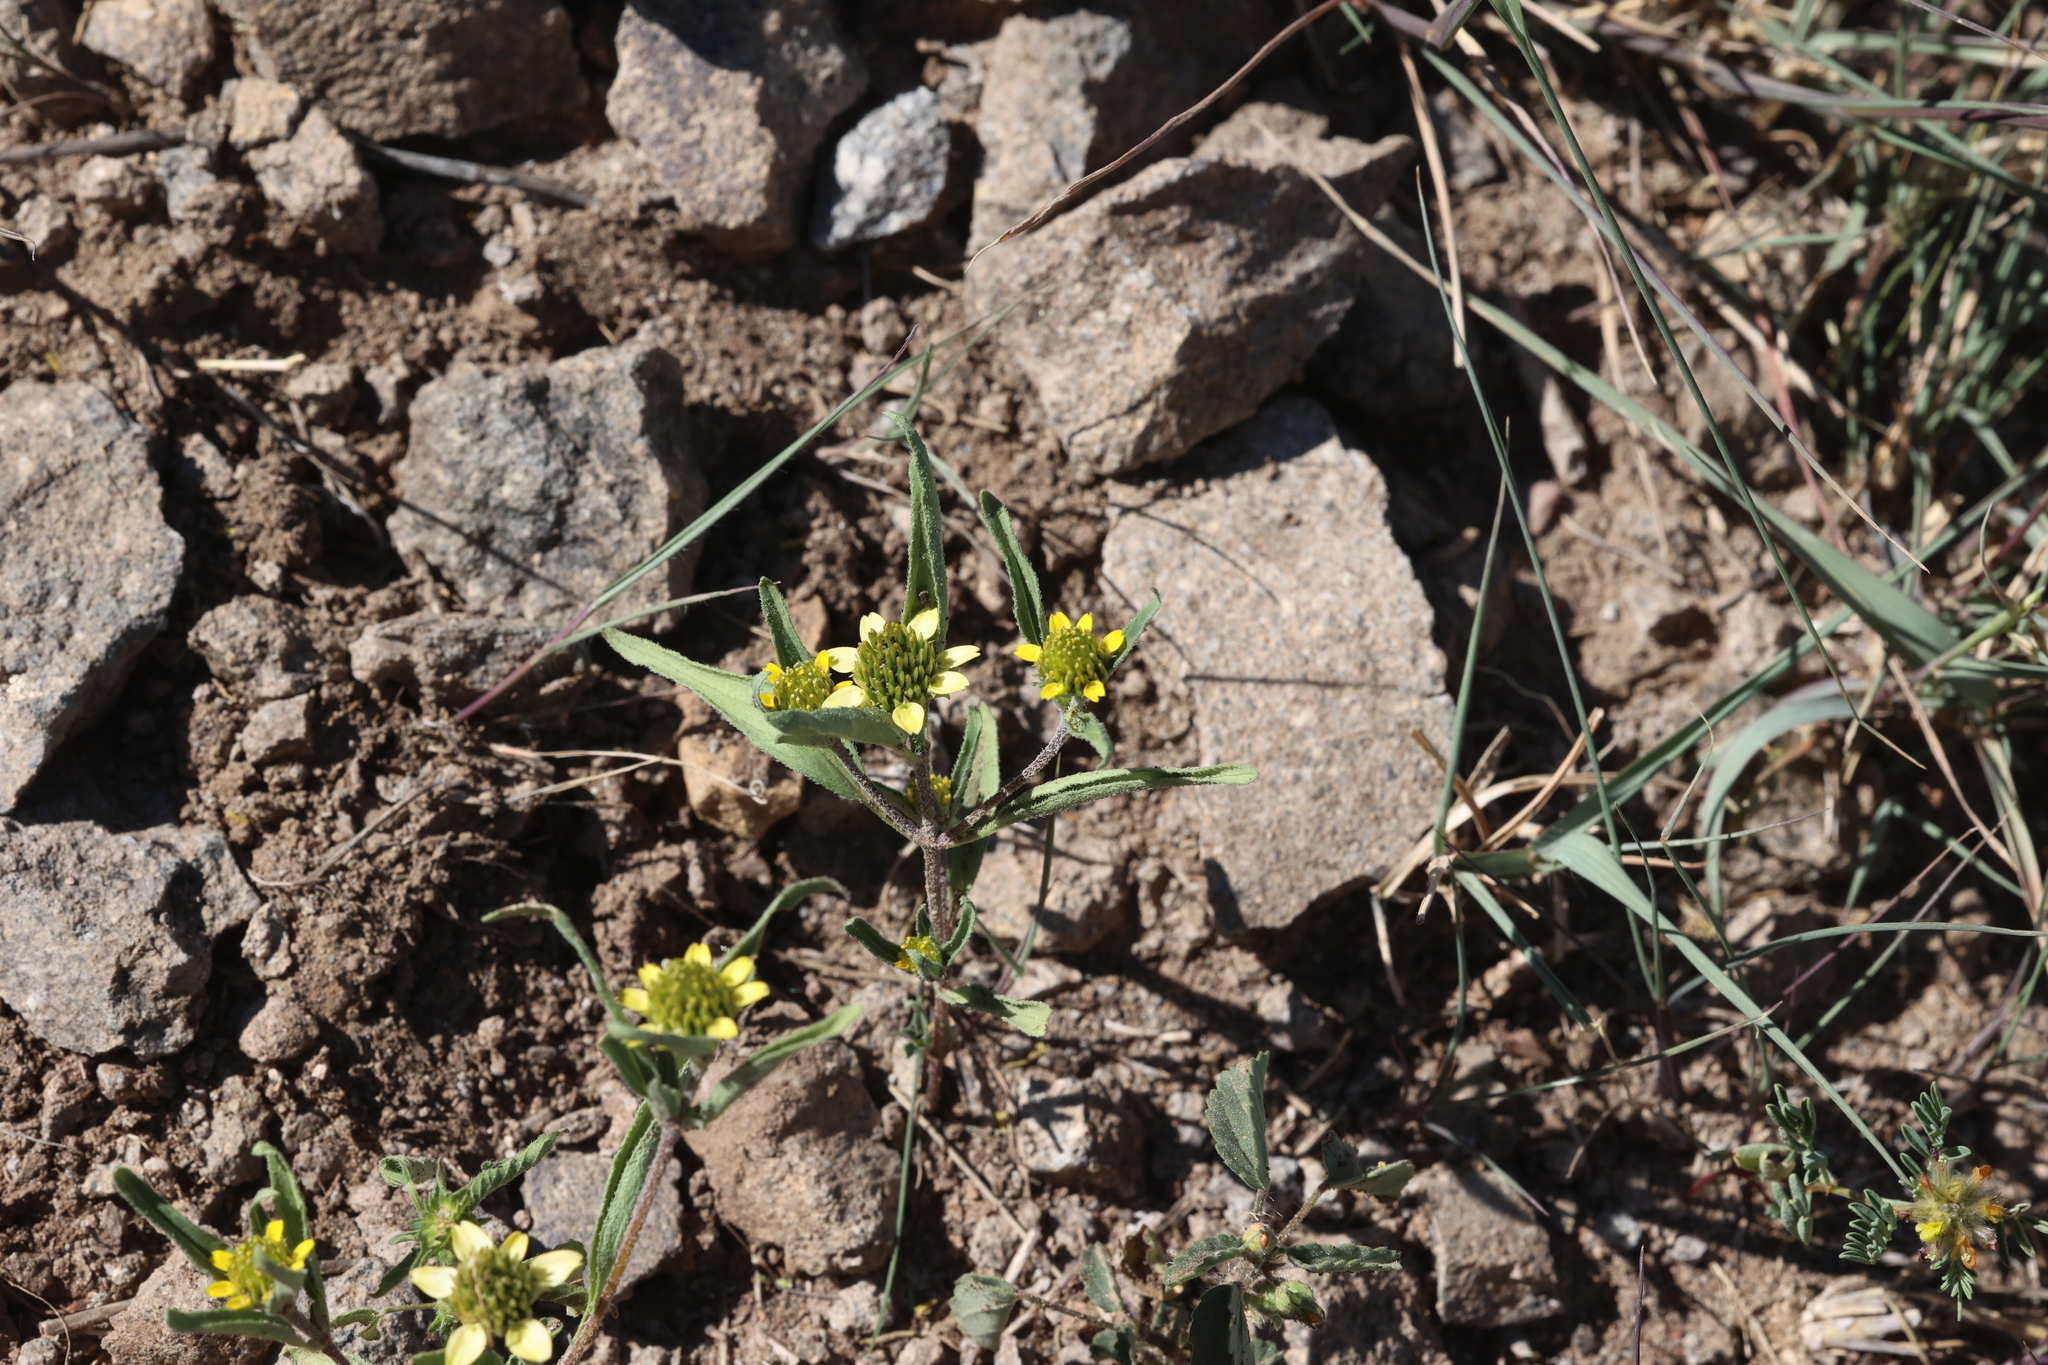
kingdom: Plantae
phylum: Tracheophyta
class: Magnoliopsida
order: Asterales
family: Asteraceae
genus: Sanvitalia
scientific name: Sanvitalia abertii
